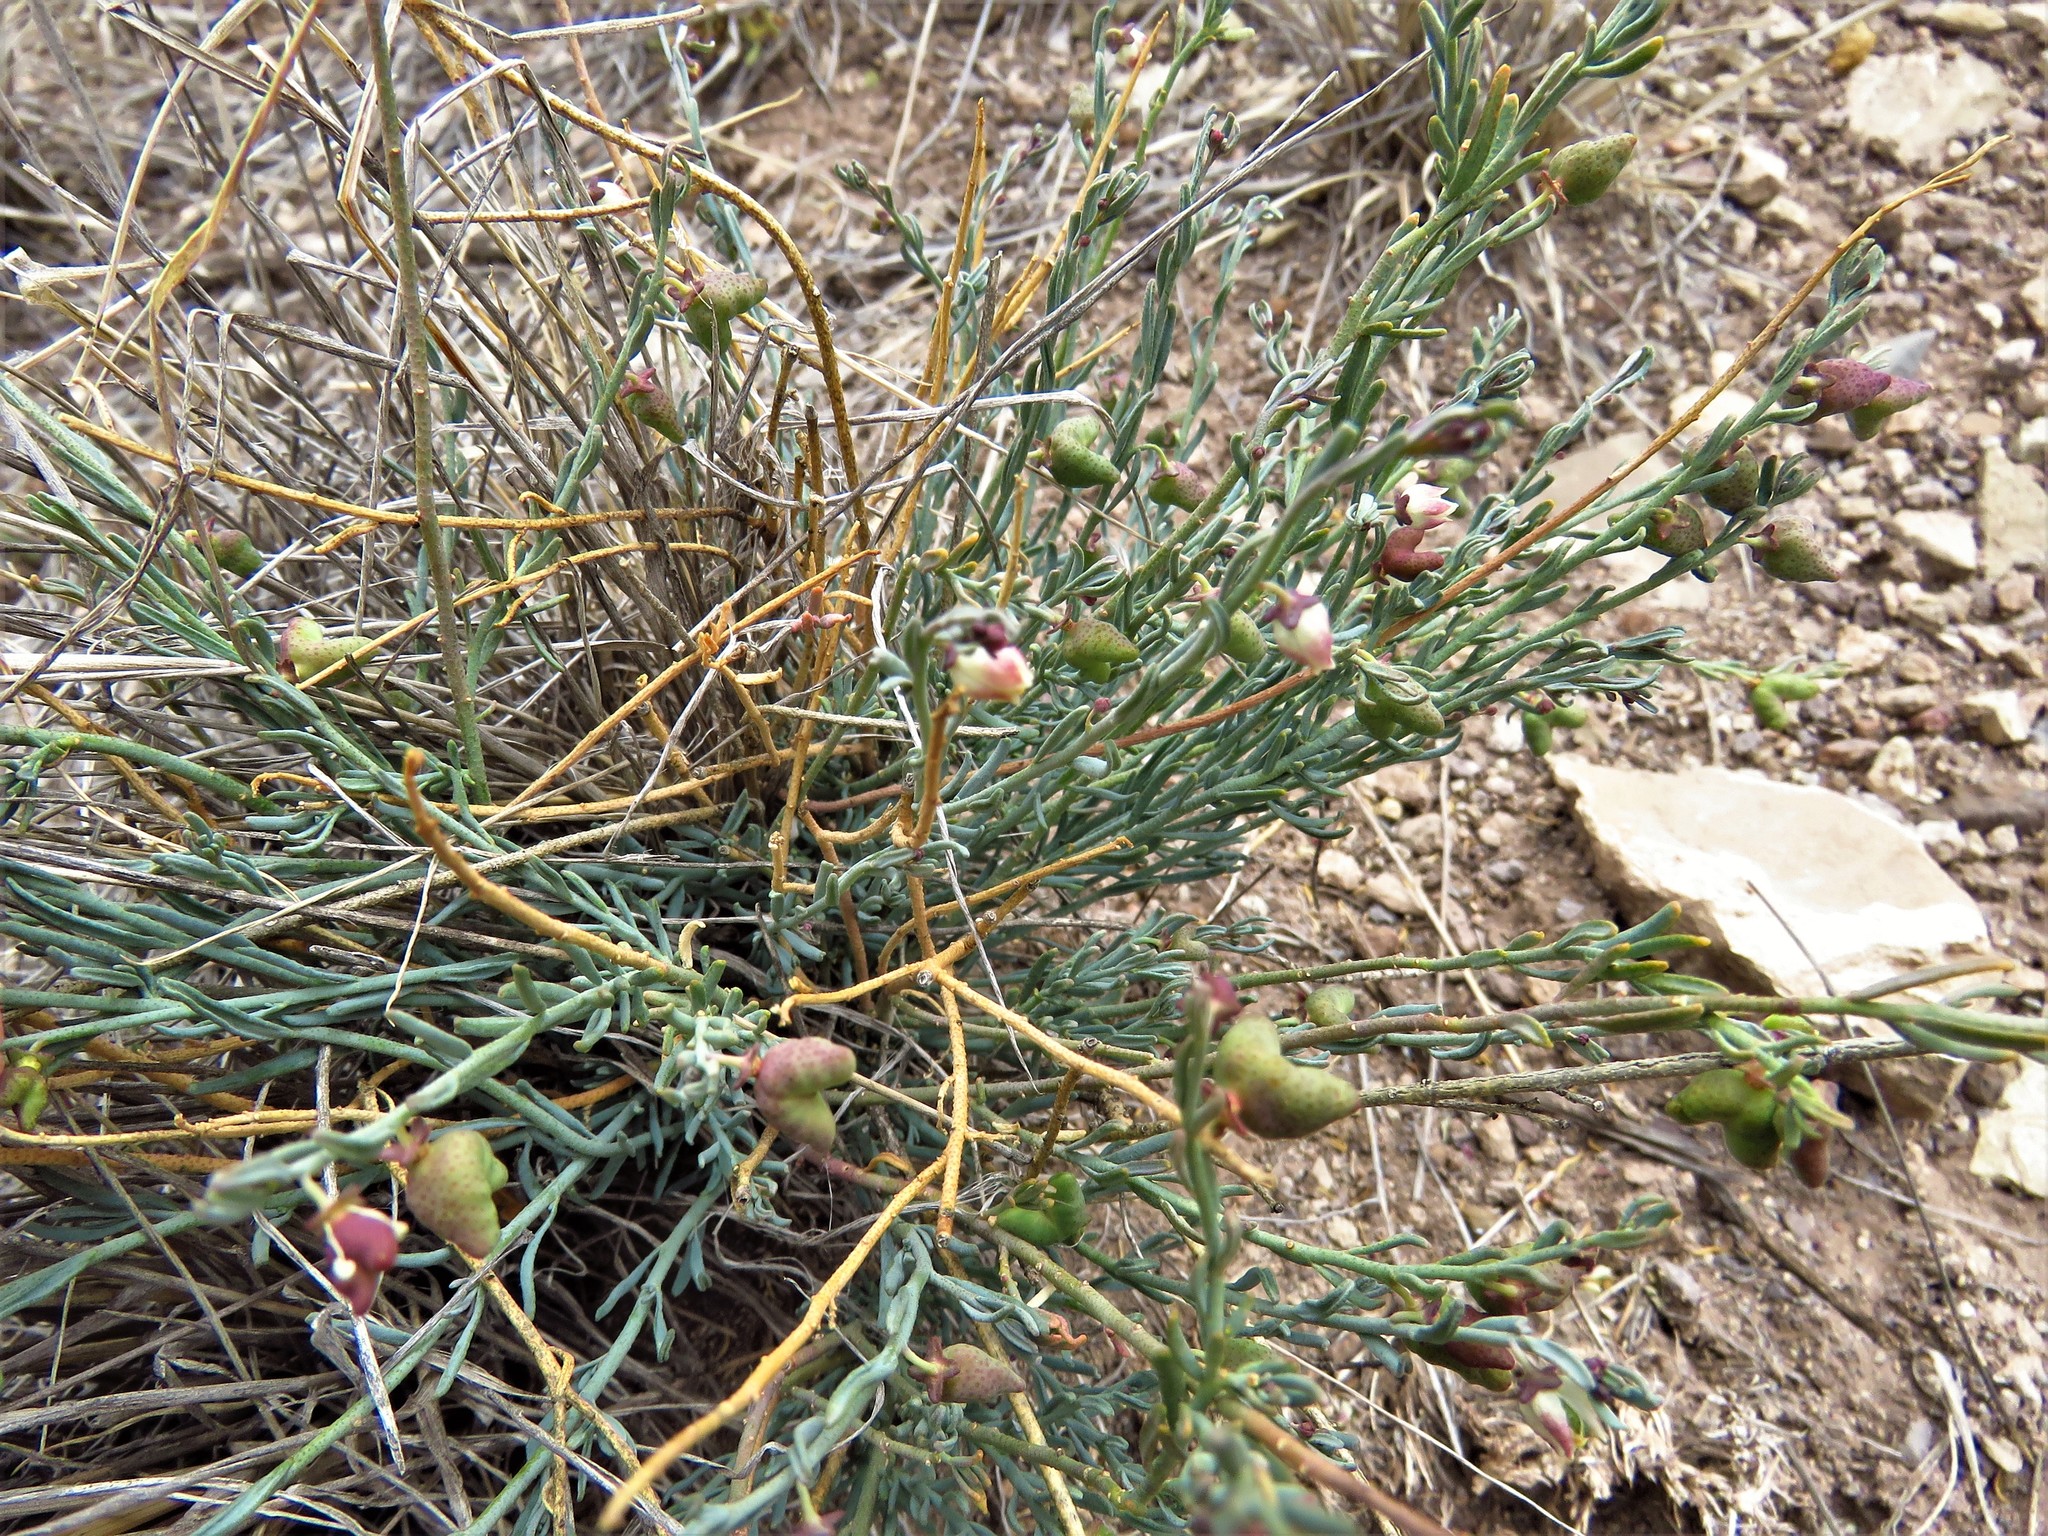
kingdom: Plantae
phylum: Tracheophyta
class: Magnoliopsida
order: Sapindales
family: Rutaceae
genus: Thamnosma
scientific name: Thamnosma texana
